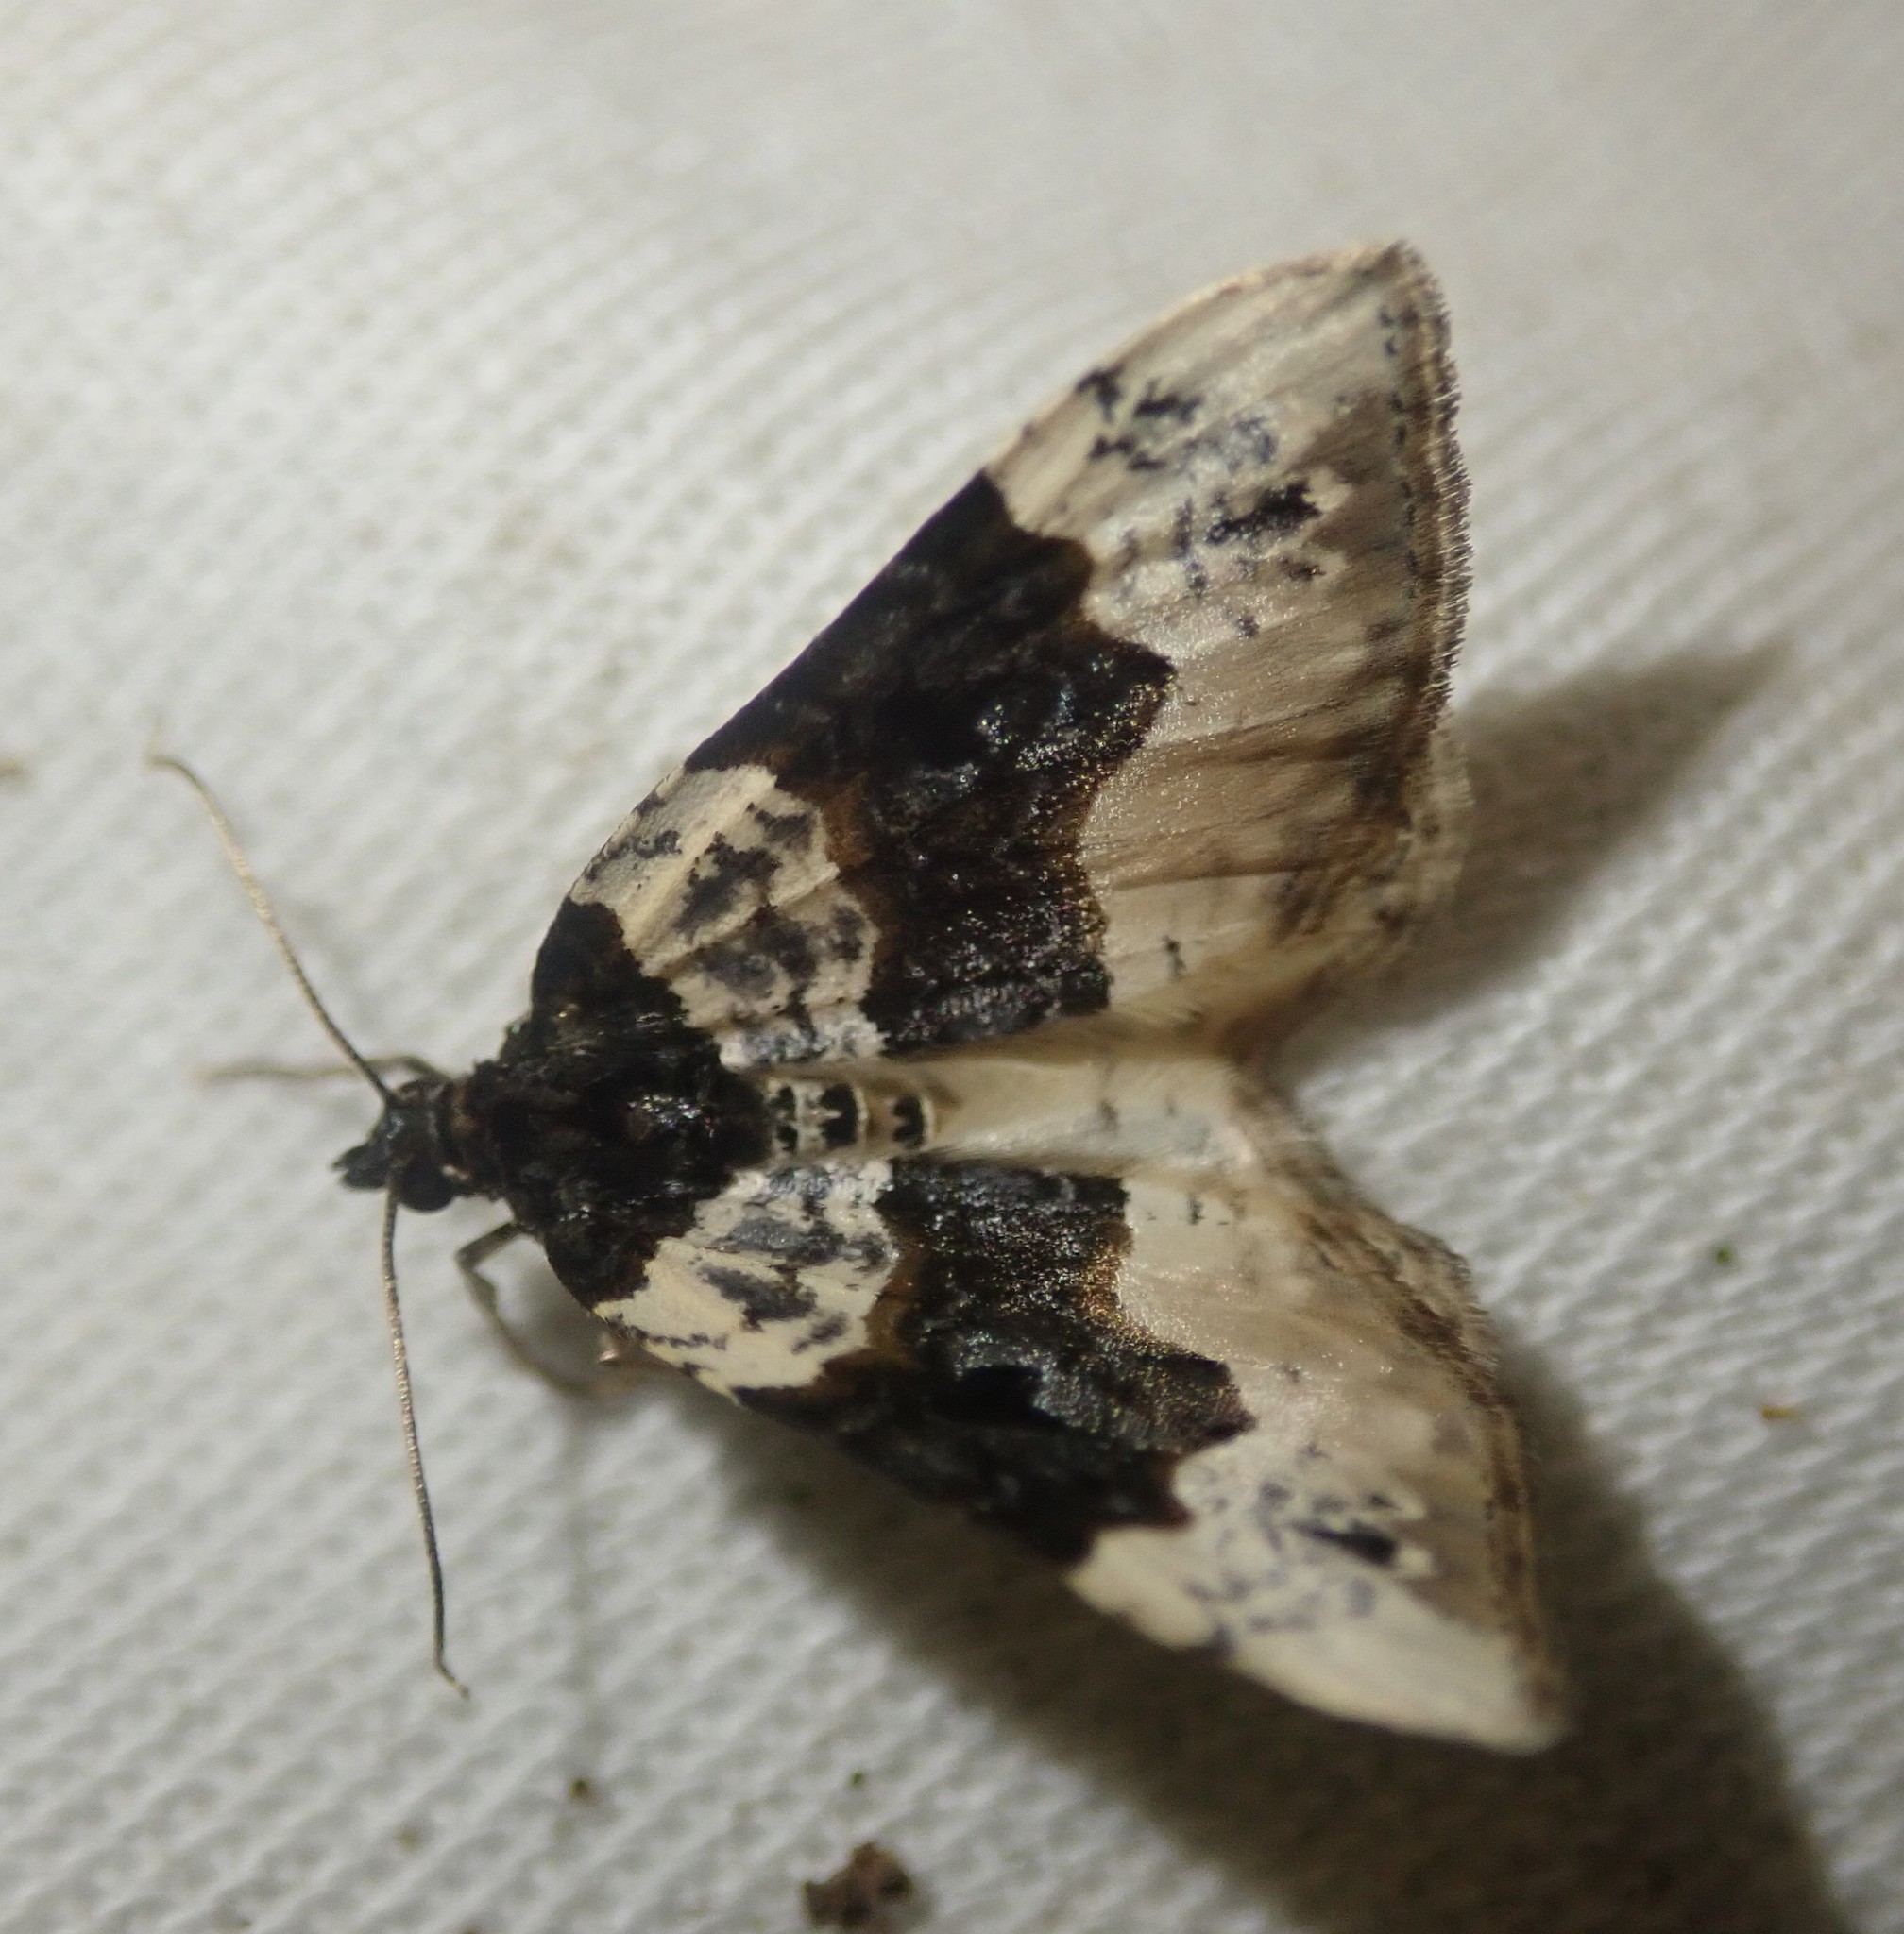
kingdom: Animalia
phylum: Arthropoda
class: Insecta
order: Lepidoptera
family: Geometridae
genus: Cosmorhoe
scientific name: Cosmorhoe ocellata
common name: Purple bar
